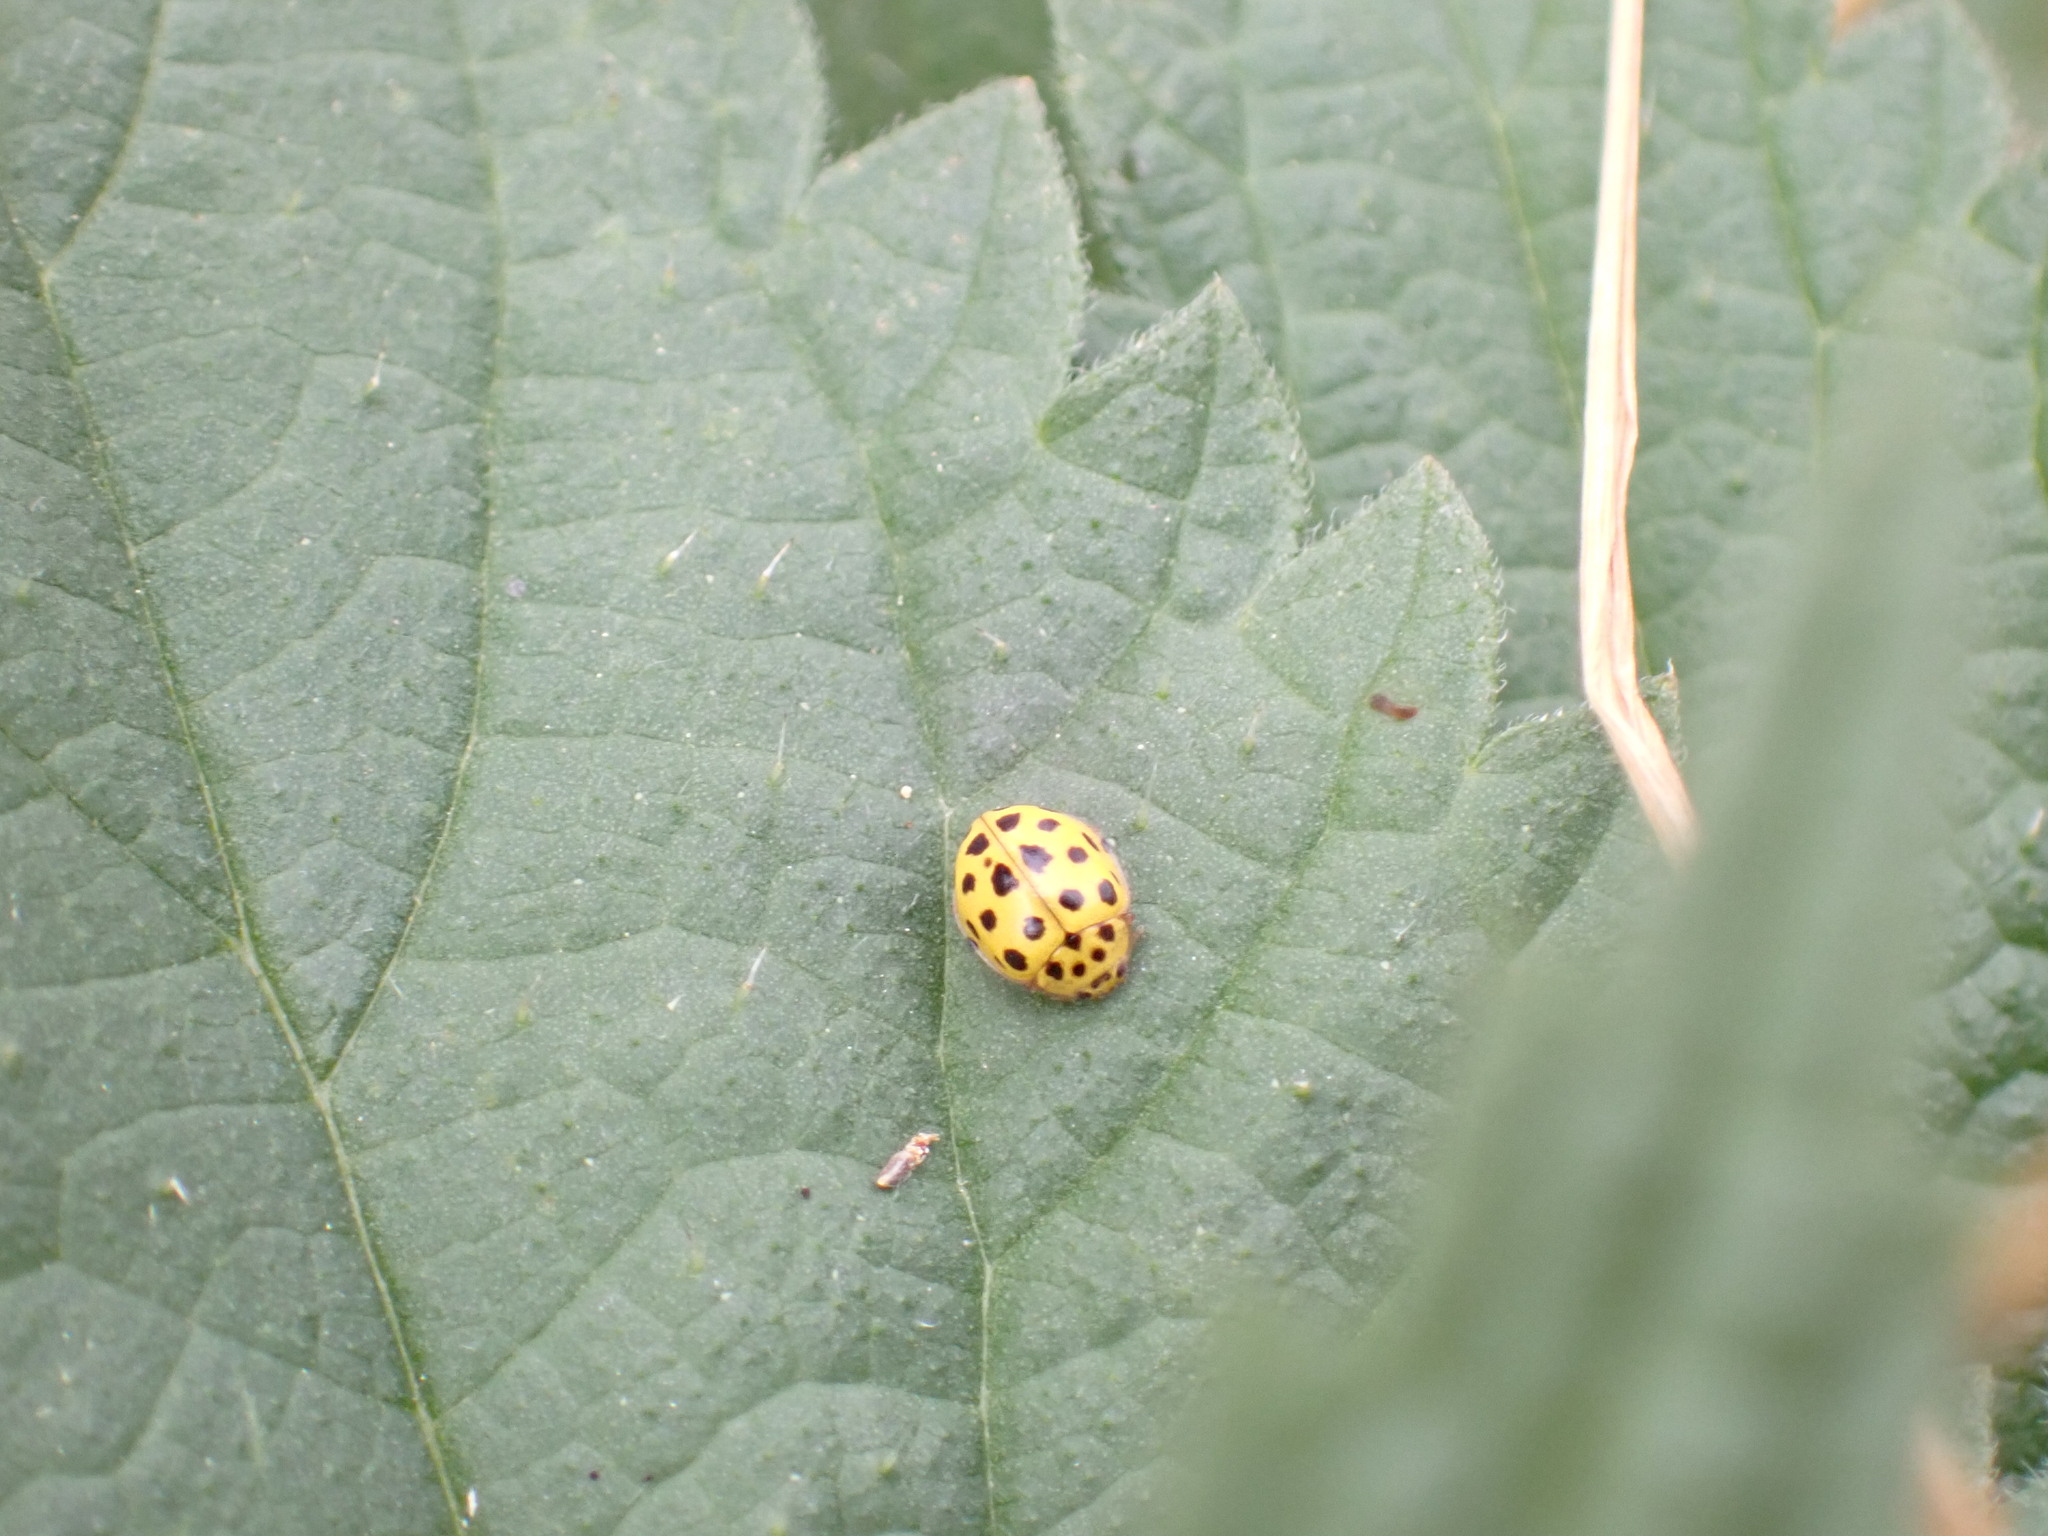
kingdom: Animalia
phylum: Arthropoda
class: Insecta
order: Coleoptera
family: Coccinellidae
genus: Psyllobora
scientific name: Psyllobora vigintiduopunctata
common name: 22-spot ladybird
